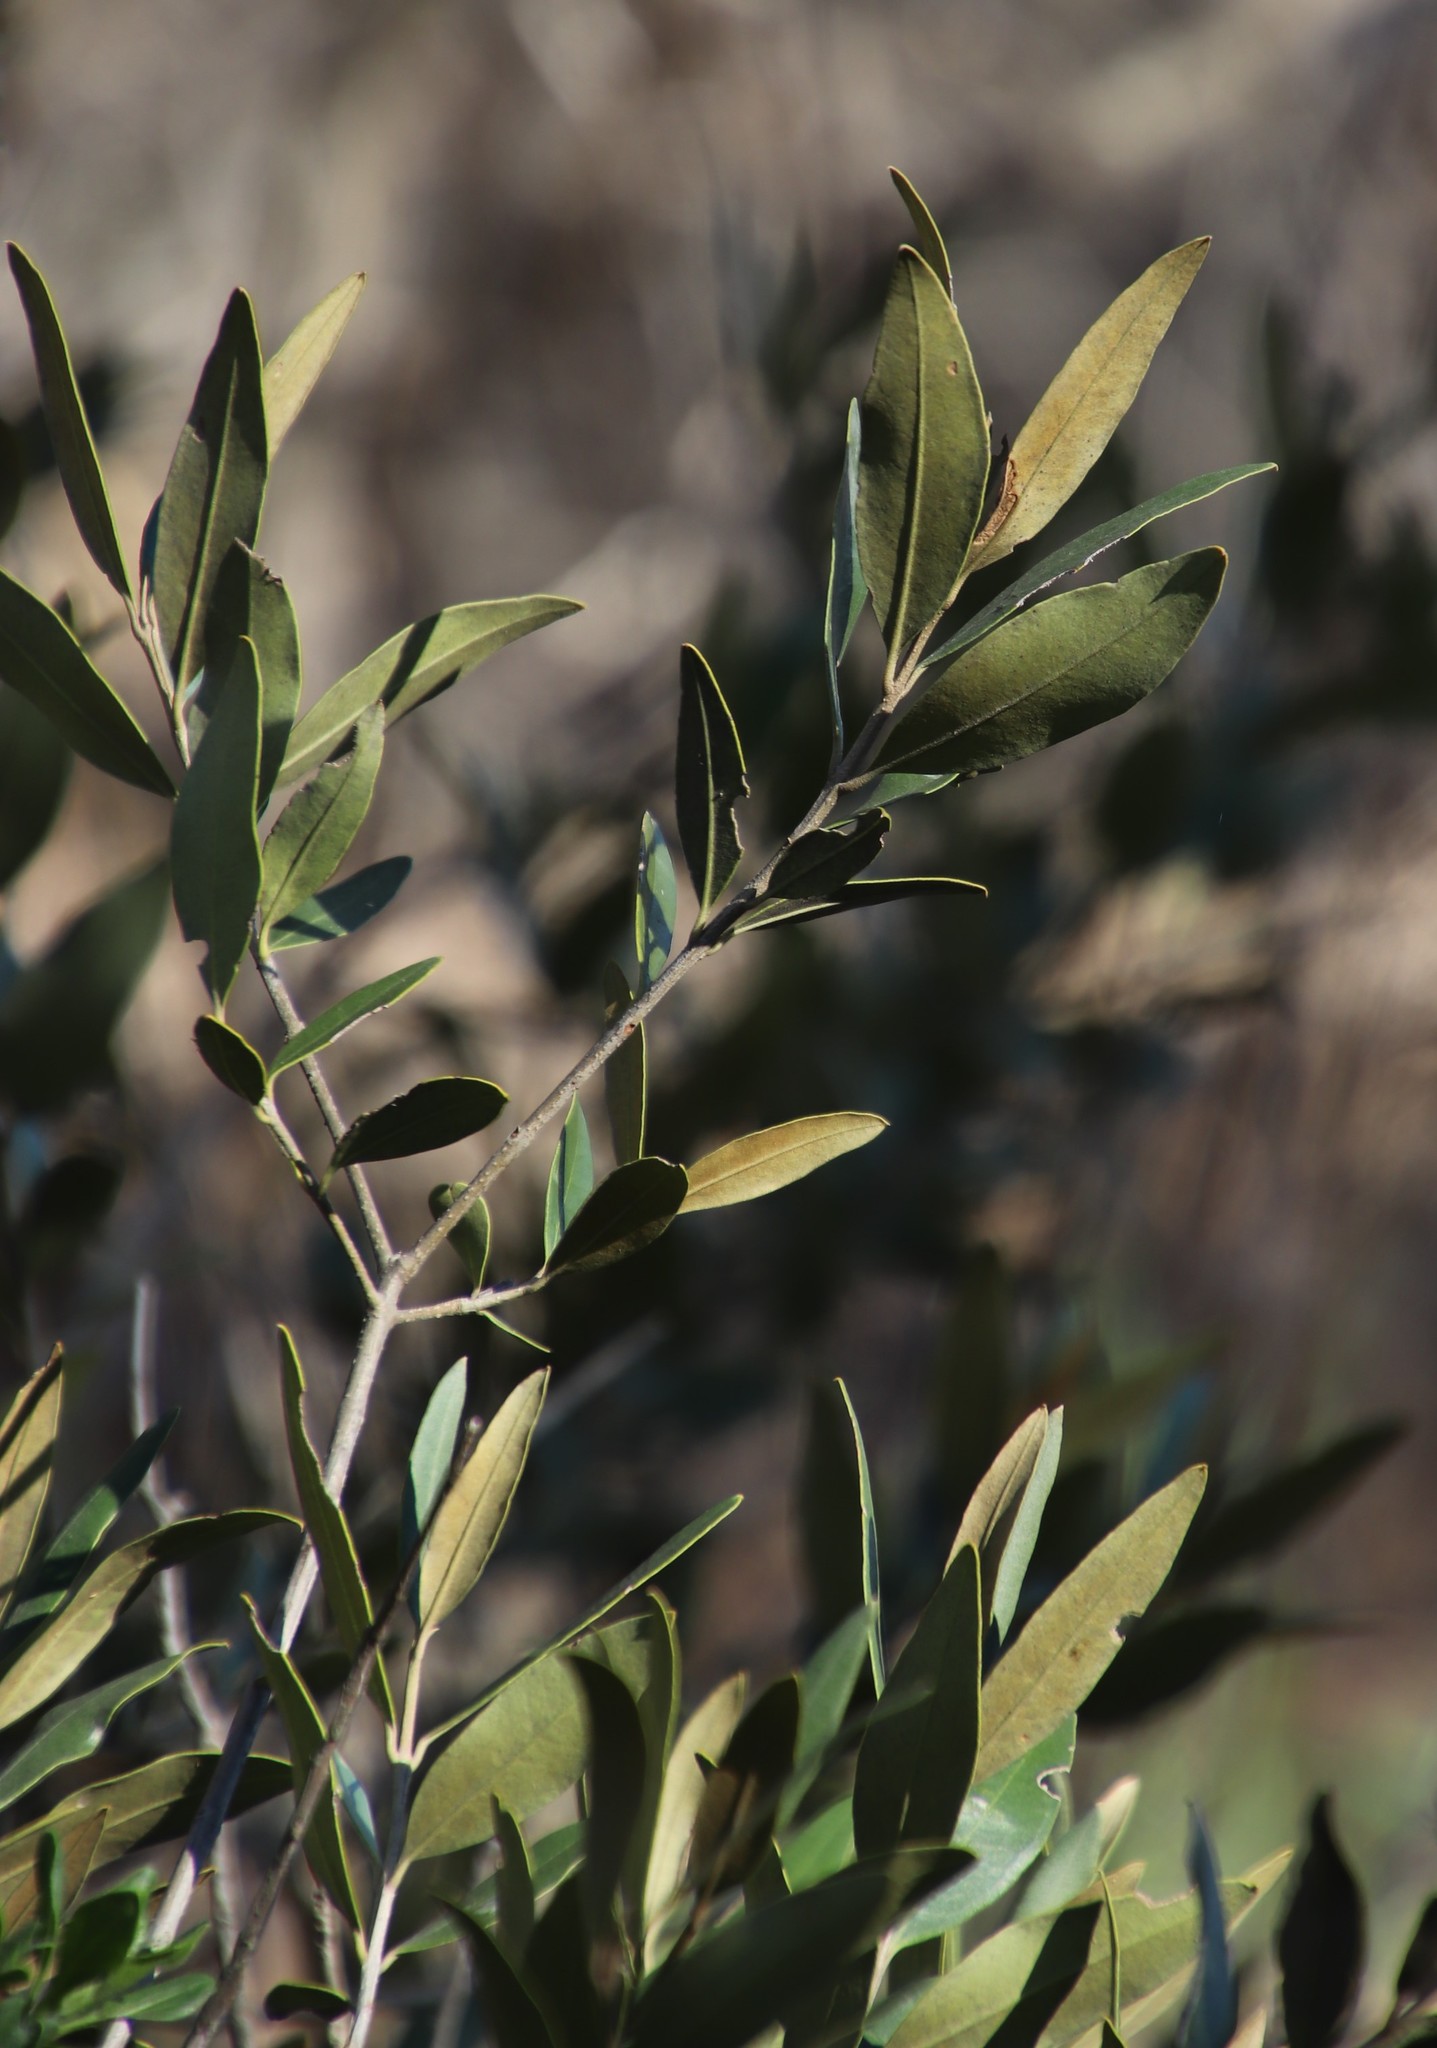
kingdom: Plantae
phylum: Tracheophyta
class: Magnoliopsida
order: Lamiales
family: Oleaceae
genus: Olea
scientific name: Olea europaea
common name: Olive
